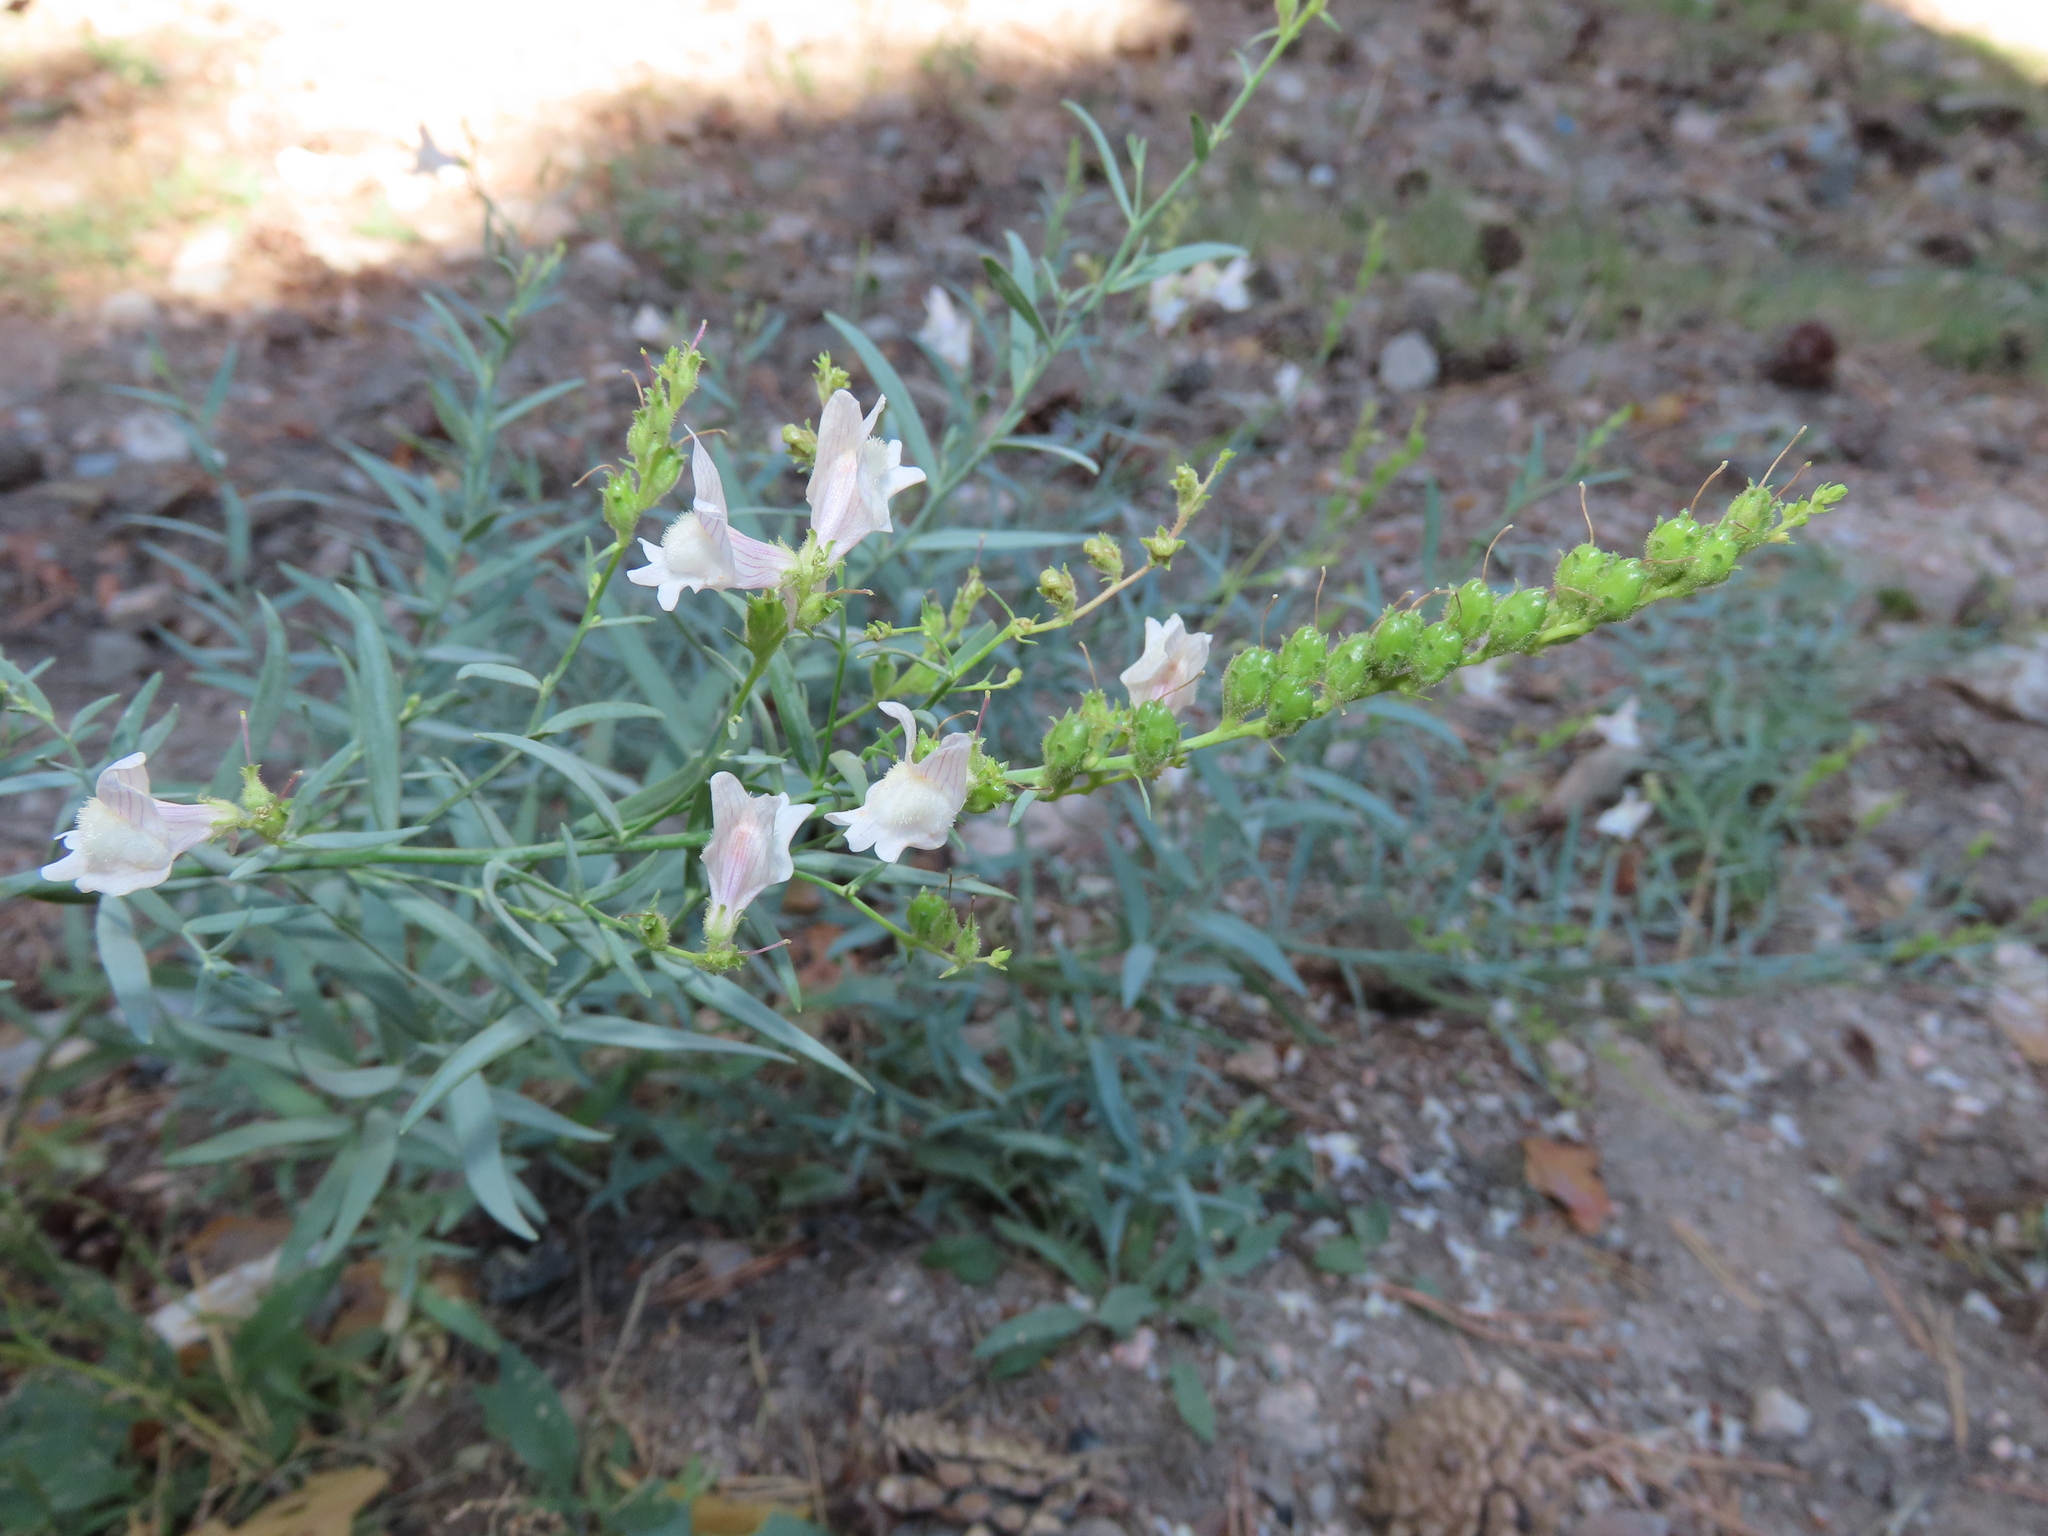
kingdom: Plantae
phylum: Tracheophyta
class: Magnoliopsida
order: Lamiales
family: Plantaginaceae
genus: Linaria
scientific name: Linaria nivea
